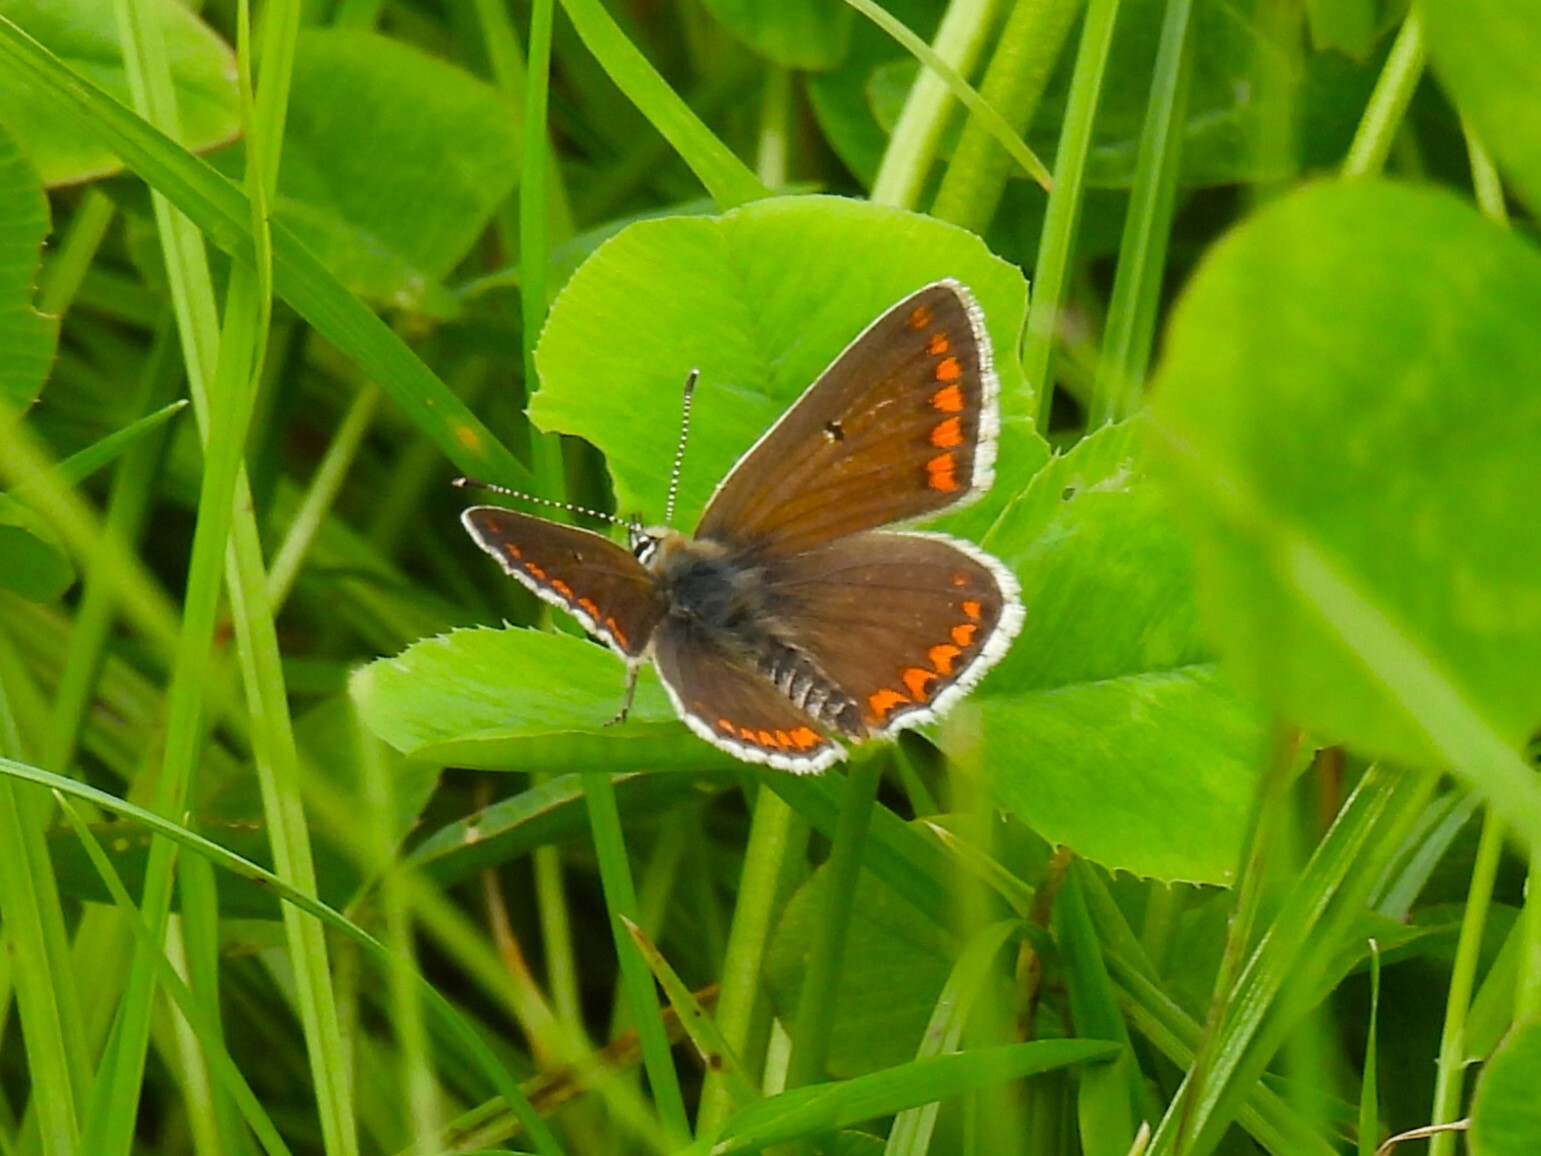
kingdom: Animalia
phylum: Arthropoda
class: Insecta
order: Lepidoptera
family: Lycaenidae
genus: Aricia
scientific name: Aricia agestis
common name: Brown argus
